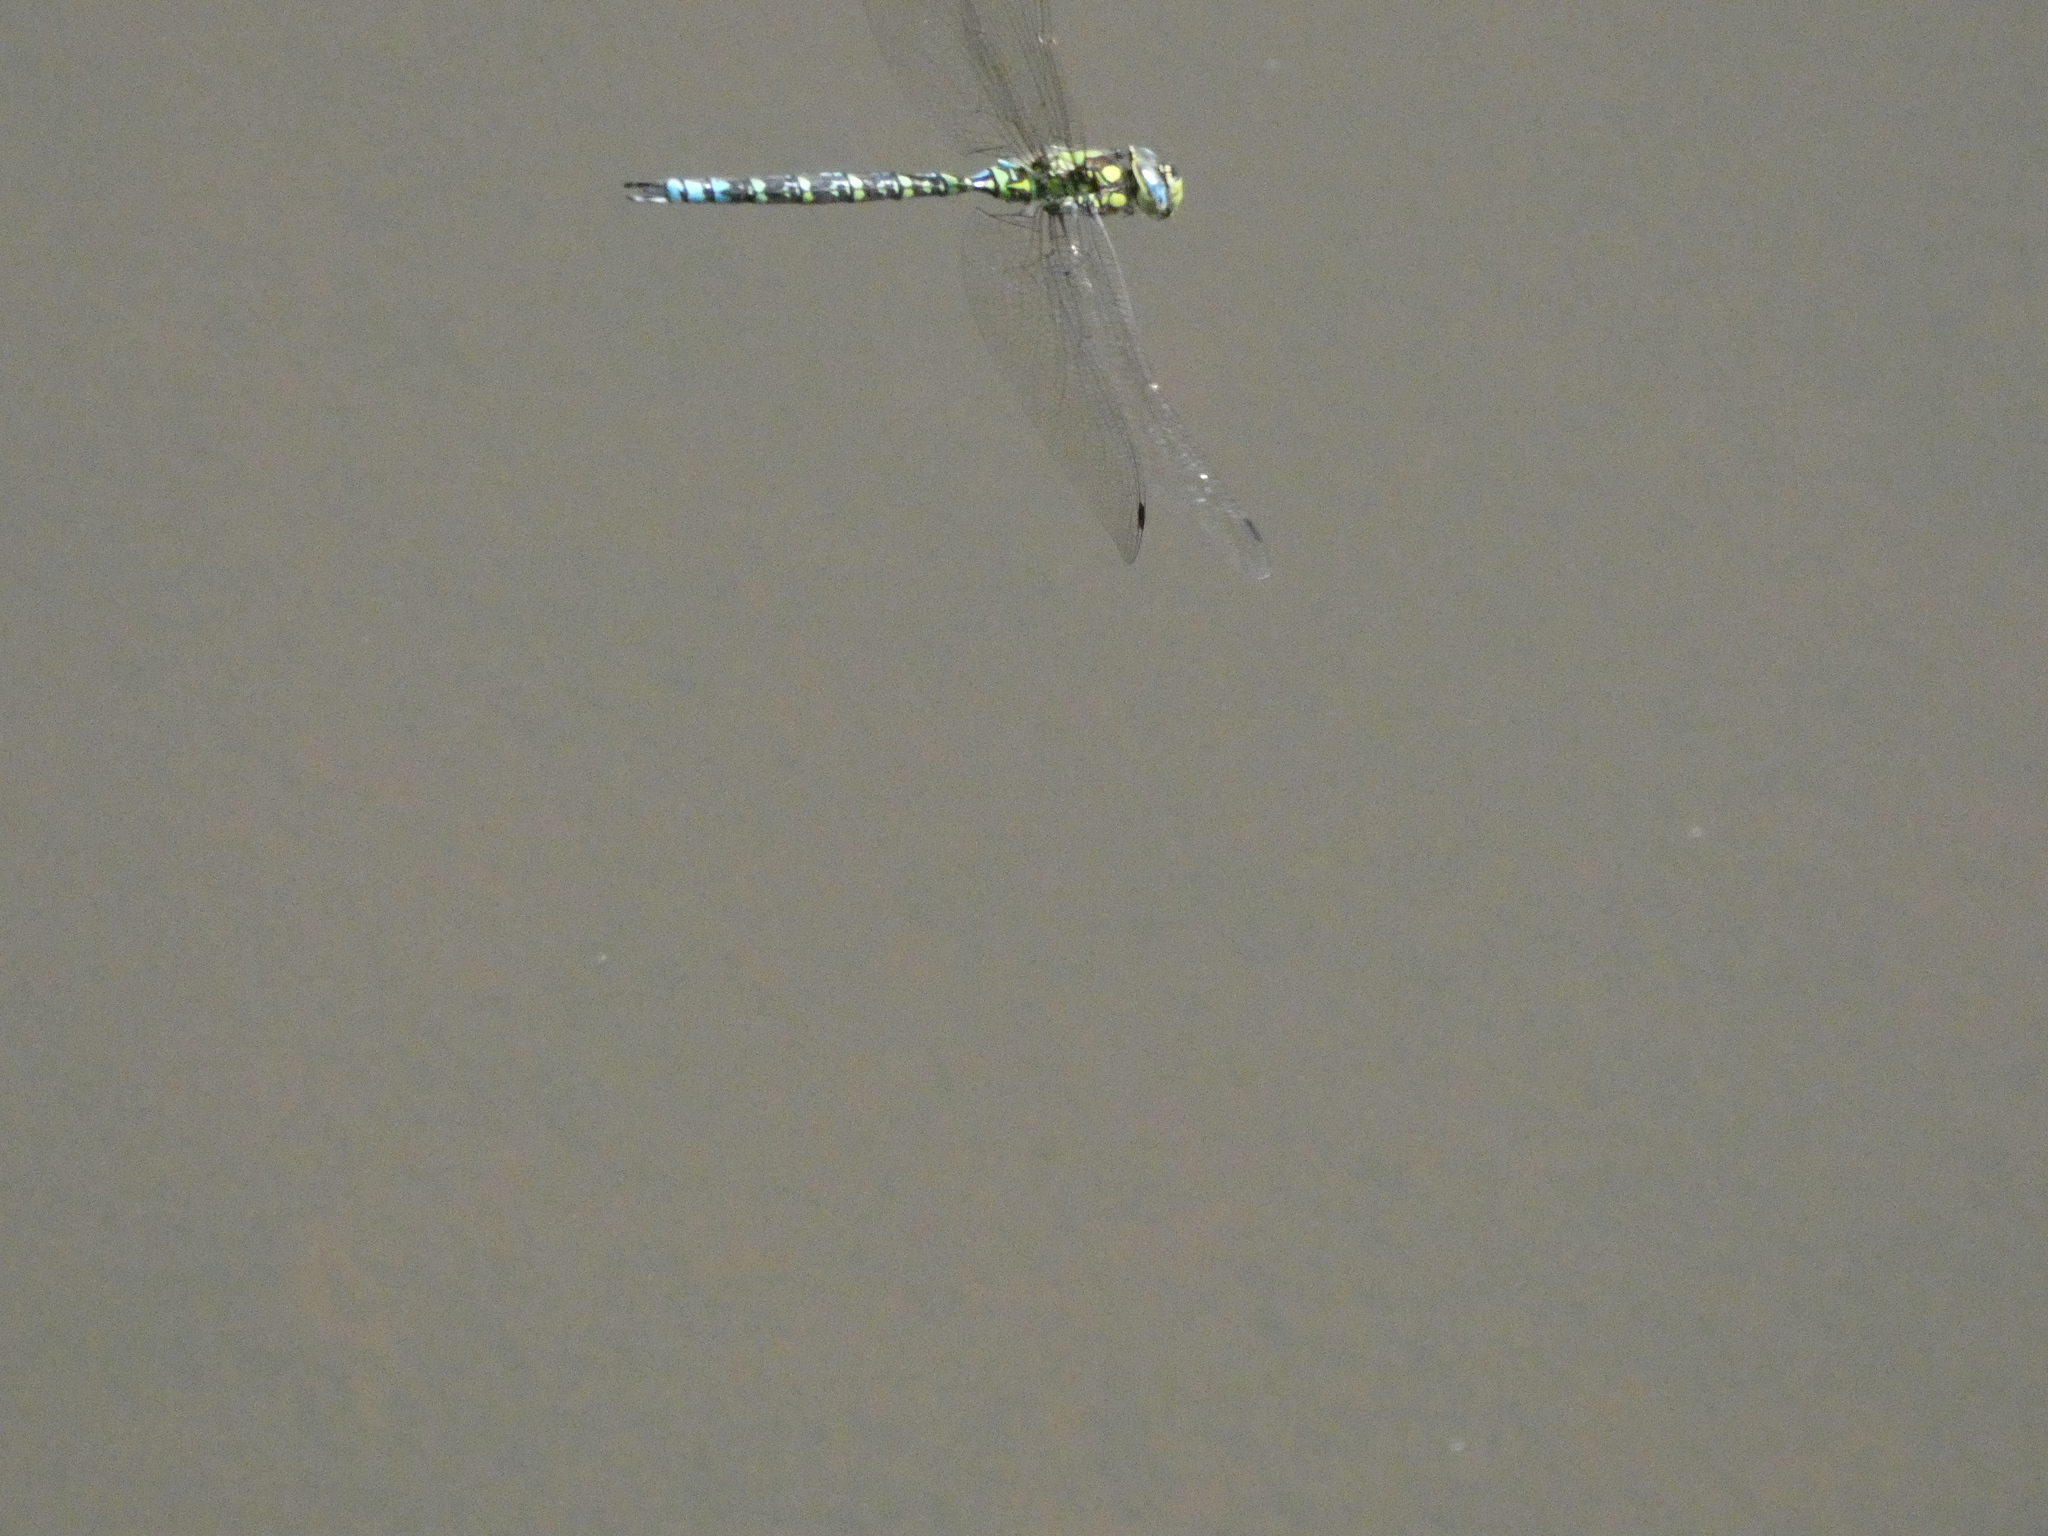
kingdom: Animalia
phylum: Arthropoda
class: Insecta
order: Odonata
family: Aeshnidae
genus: Aeshna
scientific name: Aeshna cyanea
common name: Southern hawker
